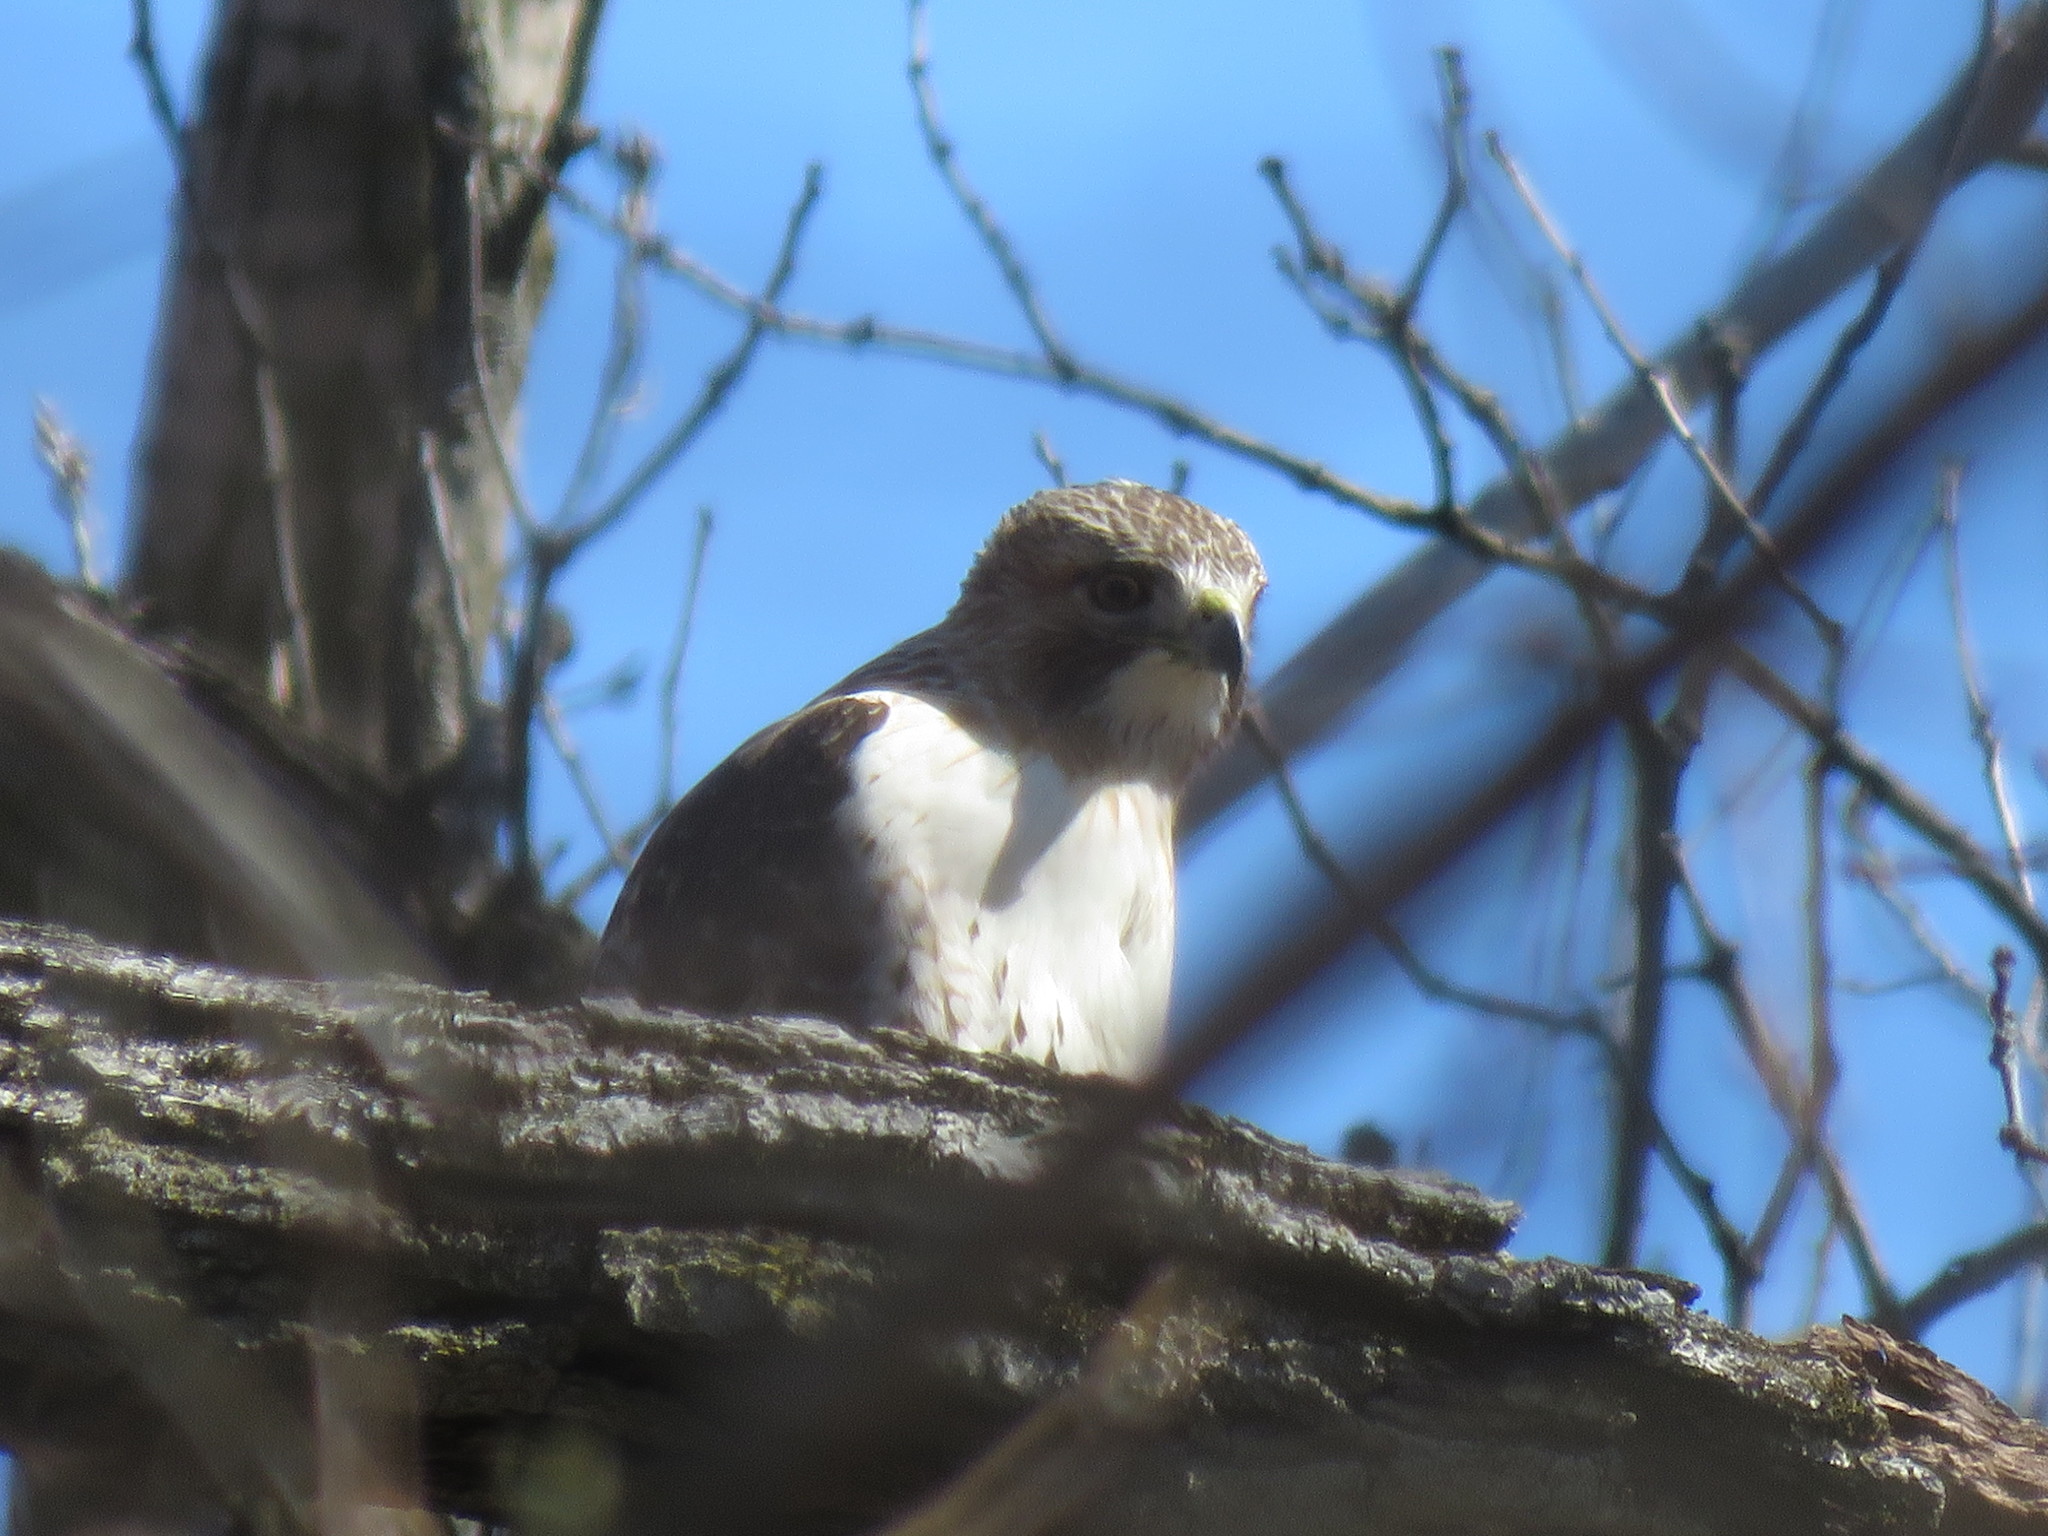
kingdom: Animalia
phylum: Chordata
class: Aves
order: Accipitriformes
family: Accipitridae
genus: Buteo
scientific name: Buteo jamaicensis
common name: Red-tailed hawk
